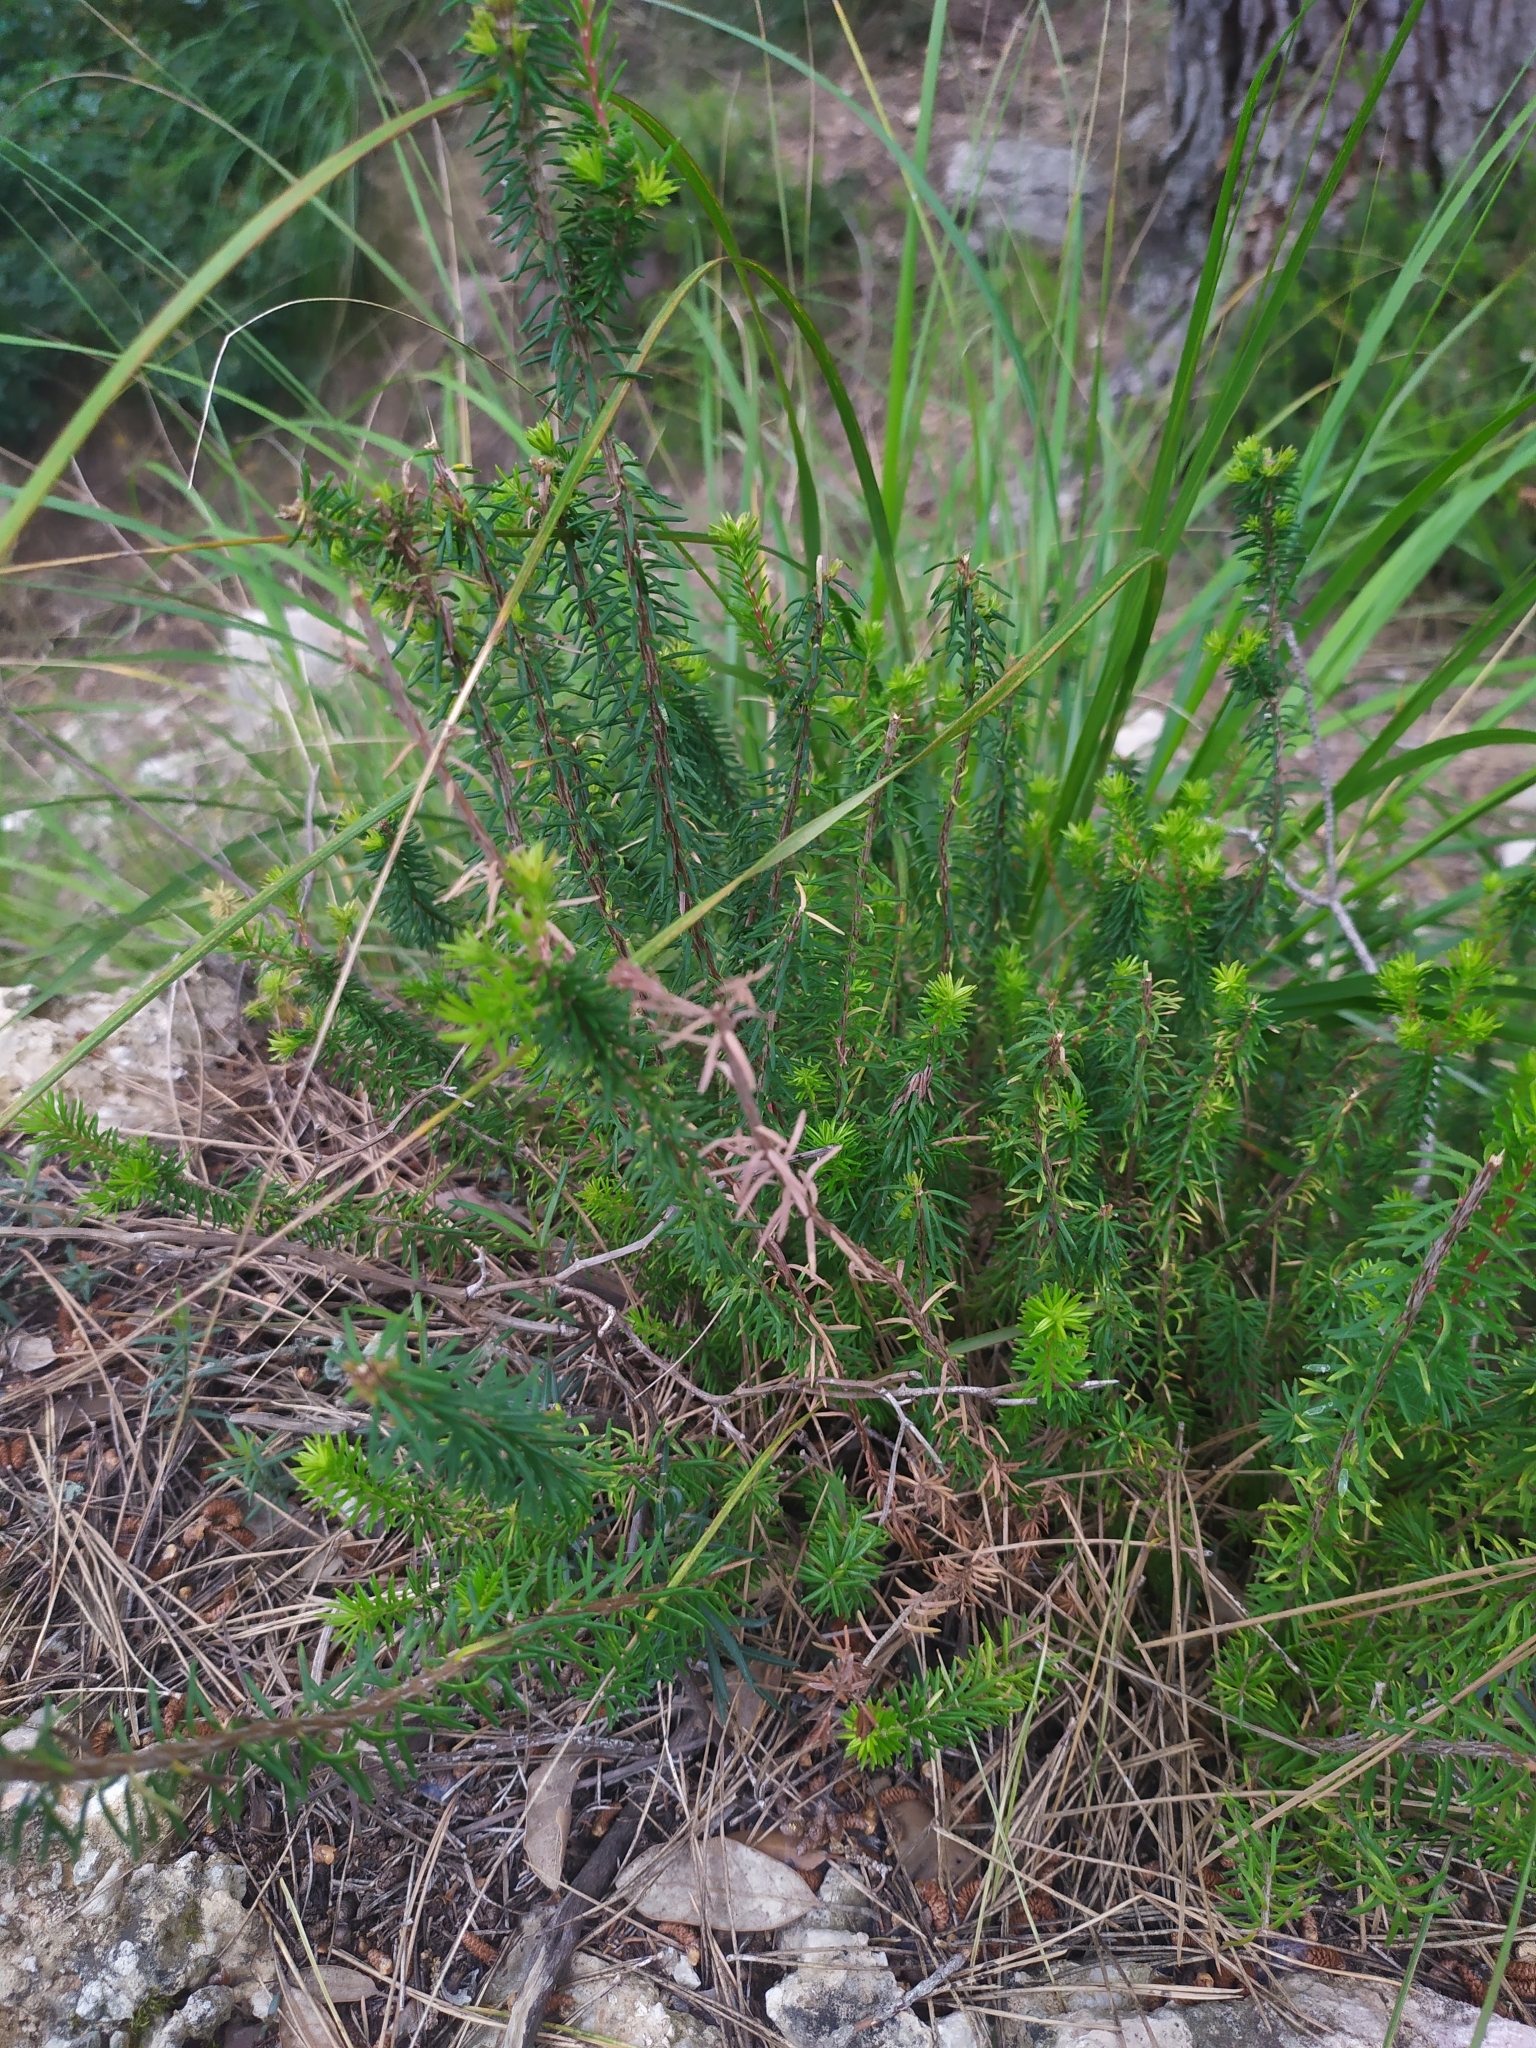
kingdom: Plantae
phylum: Tracheophyta
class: Magnoliopsida
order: Ericales
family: Ericaceae
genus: Erica
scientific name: Erica multiflora
